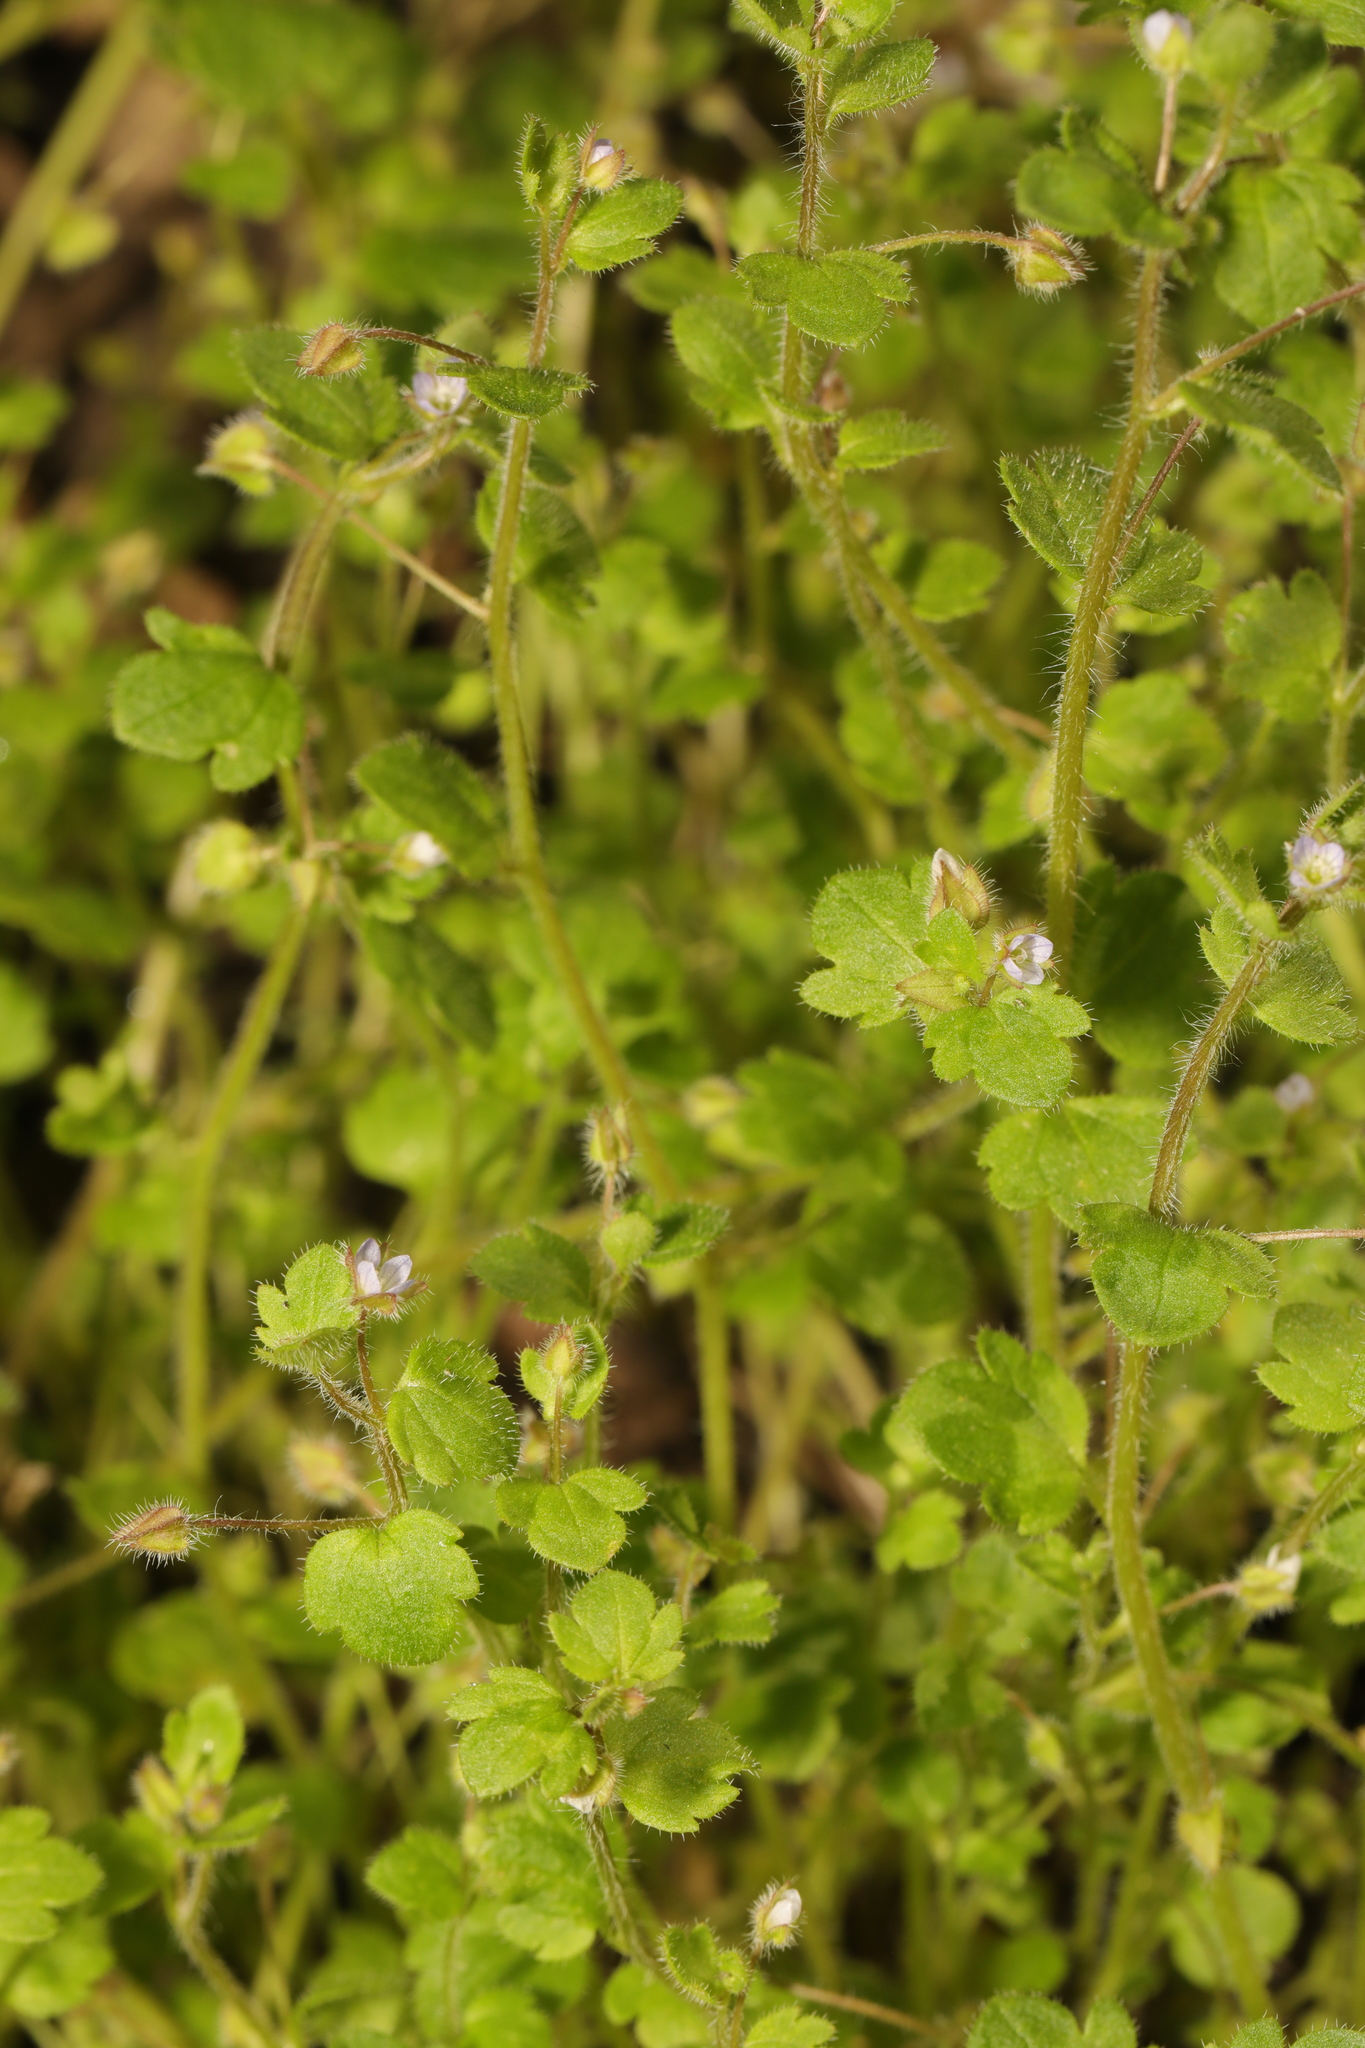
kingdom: Plantae
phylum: Tracheophyta
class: Magnoliopsida
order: Lamiales
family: Plantaginaceae
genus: Veronica
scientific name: Veronica sublobata
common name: False ivy-leaved speedwell
